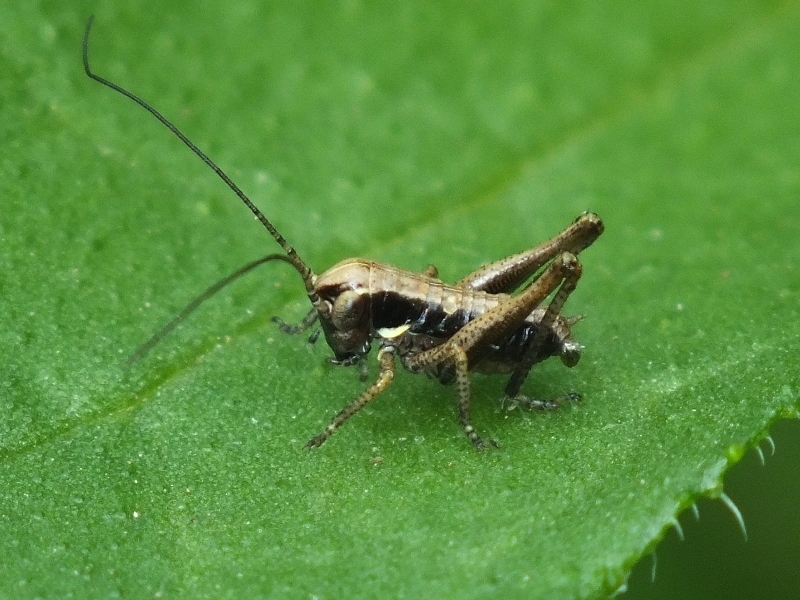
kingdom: Animalia
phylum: Arthropoda
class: Insecta
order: Orthoptera
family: Tettigoniidae
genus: Decticus
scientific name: Decticus verrucivorus
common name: Wart-biter
